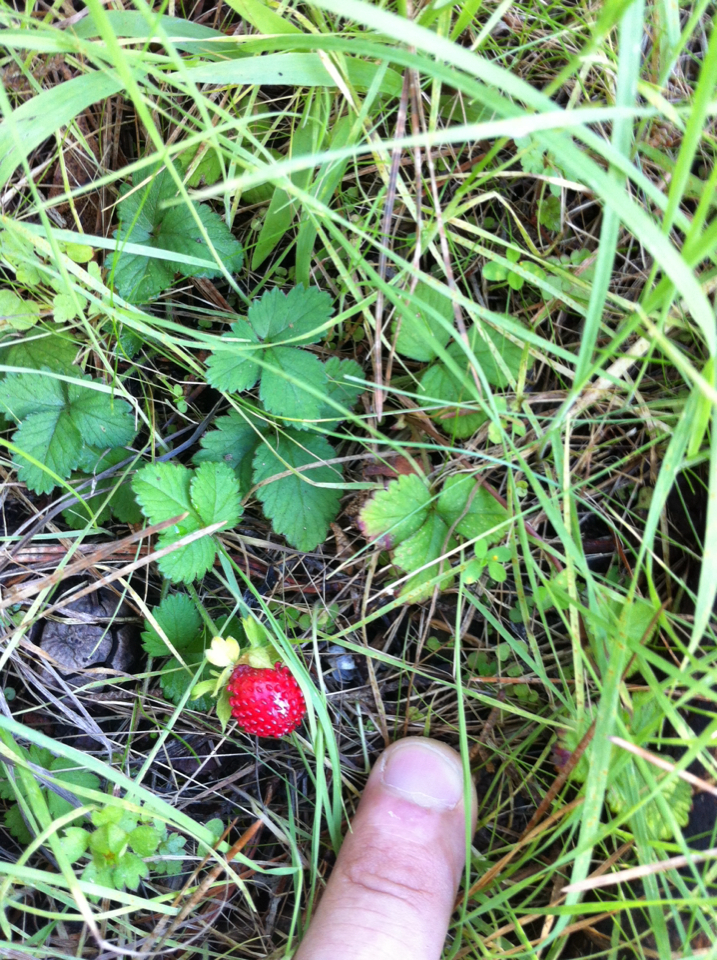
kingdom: Plantae
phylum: Tracheophyta
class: Magnoliopsida
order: Rosales
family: Rosaceae
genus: Potentilla
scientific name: Potentilla indica
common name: Yellow-flowered strawberry
